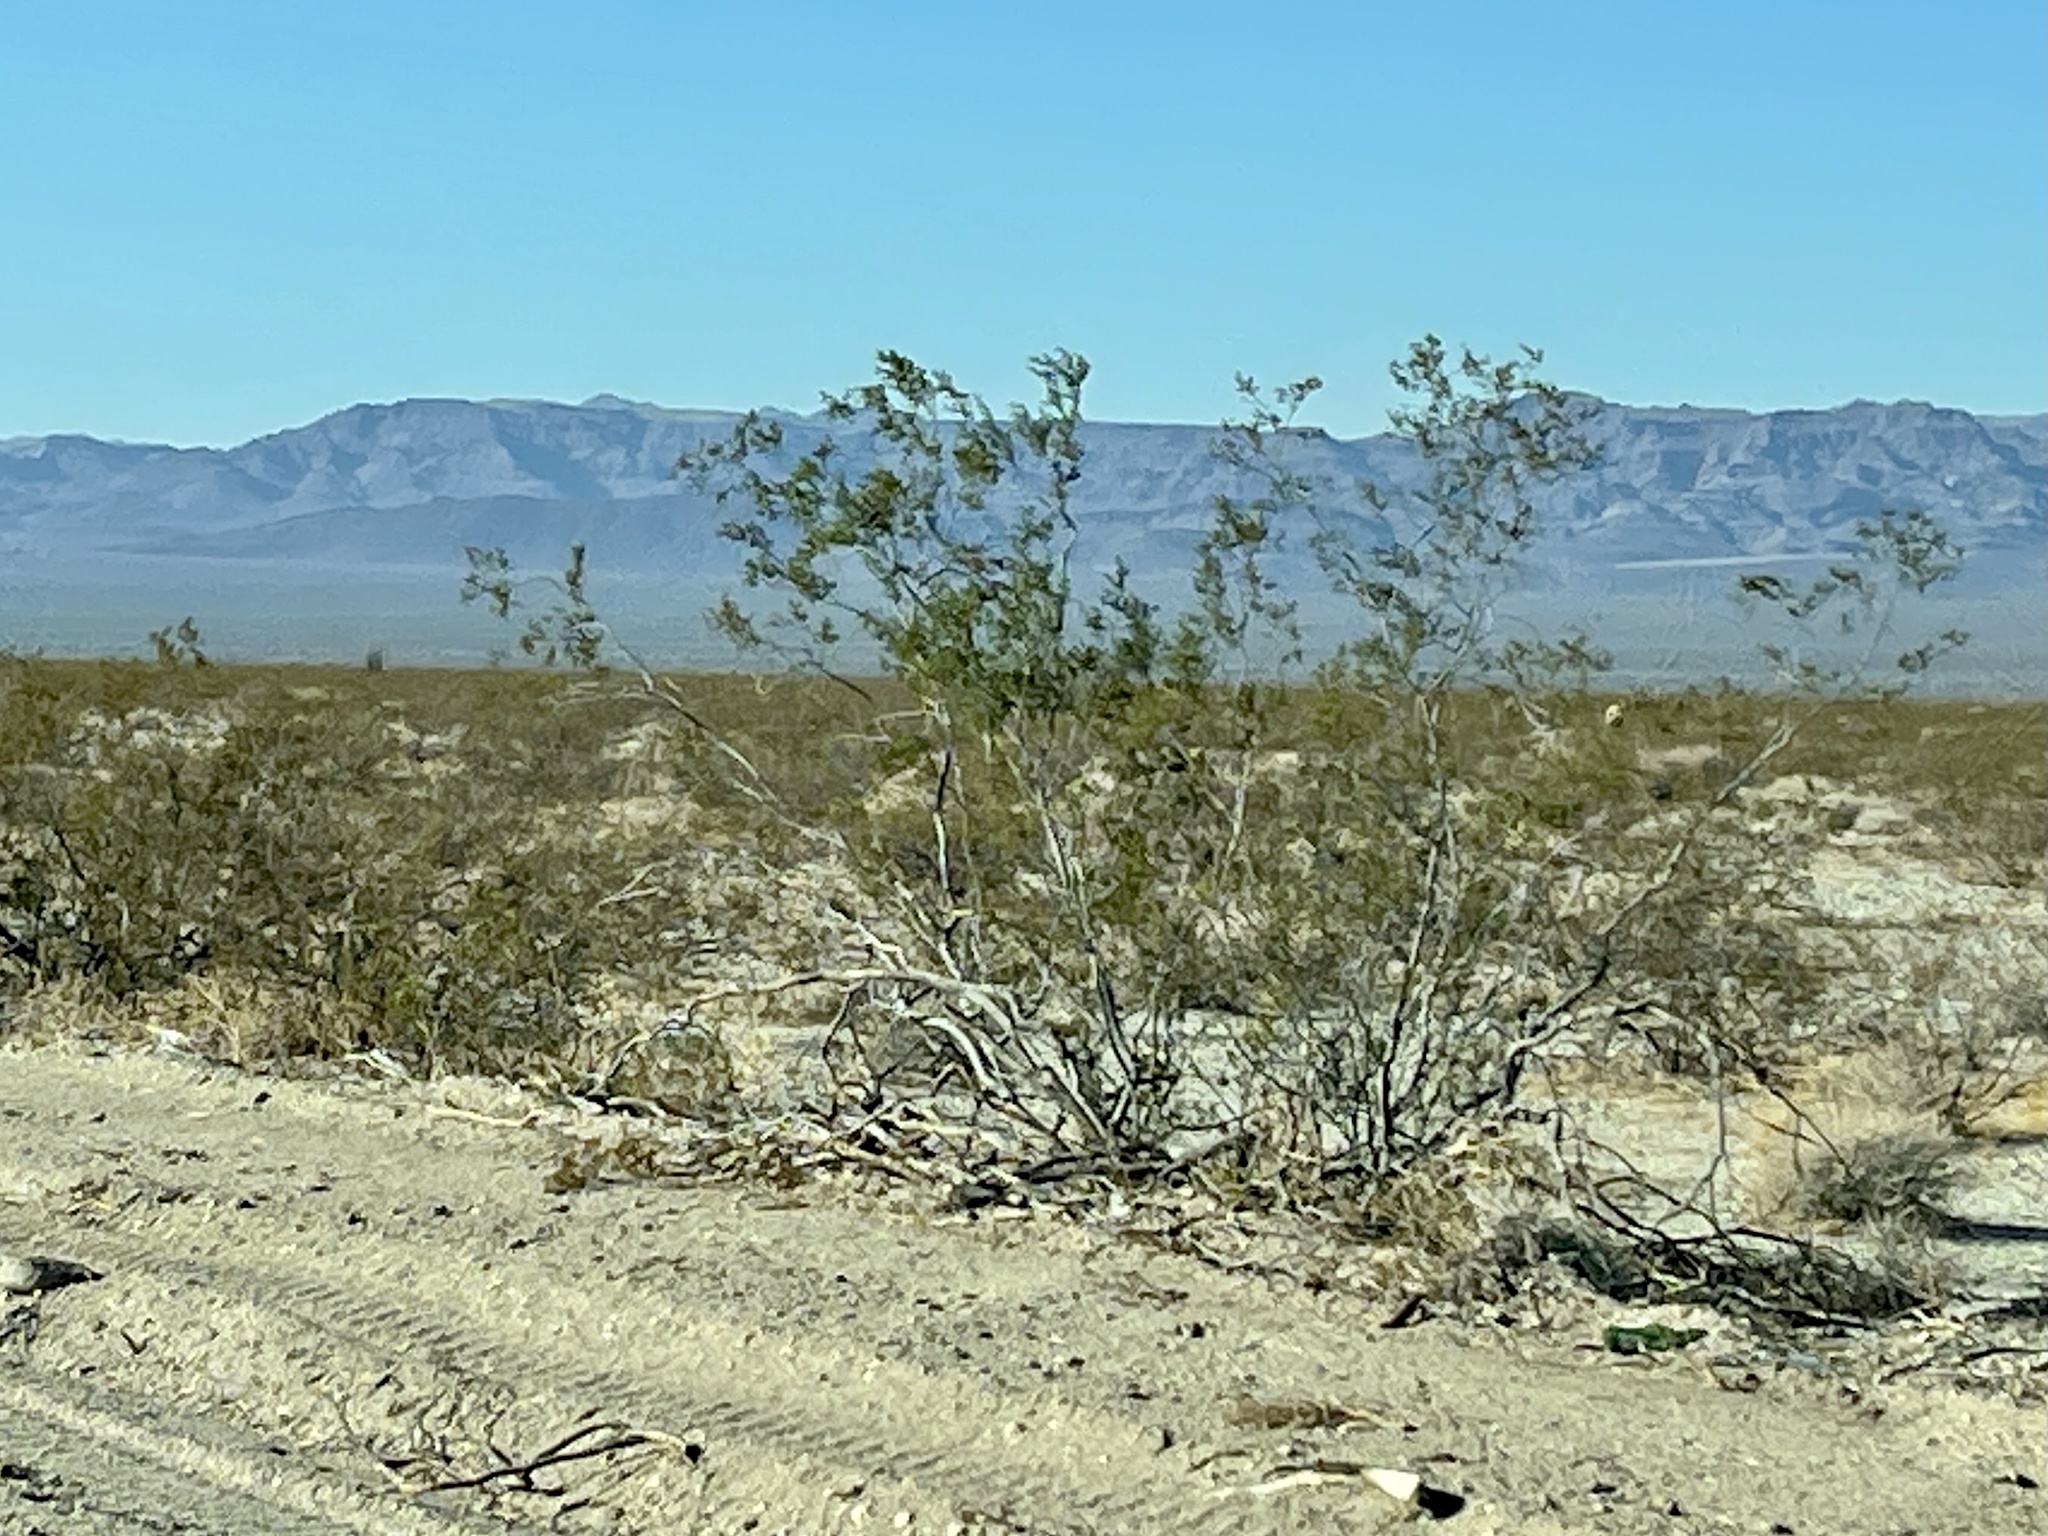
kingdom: Plantae
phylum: Tracheophyta
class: Magnoliopsida
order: Zygophyllales
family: Zygophyllaceae
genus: Larrea
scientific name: Larrea tridentata
